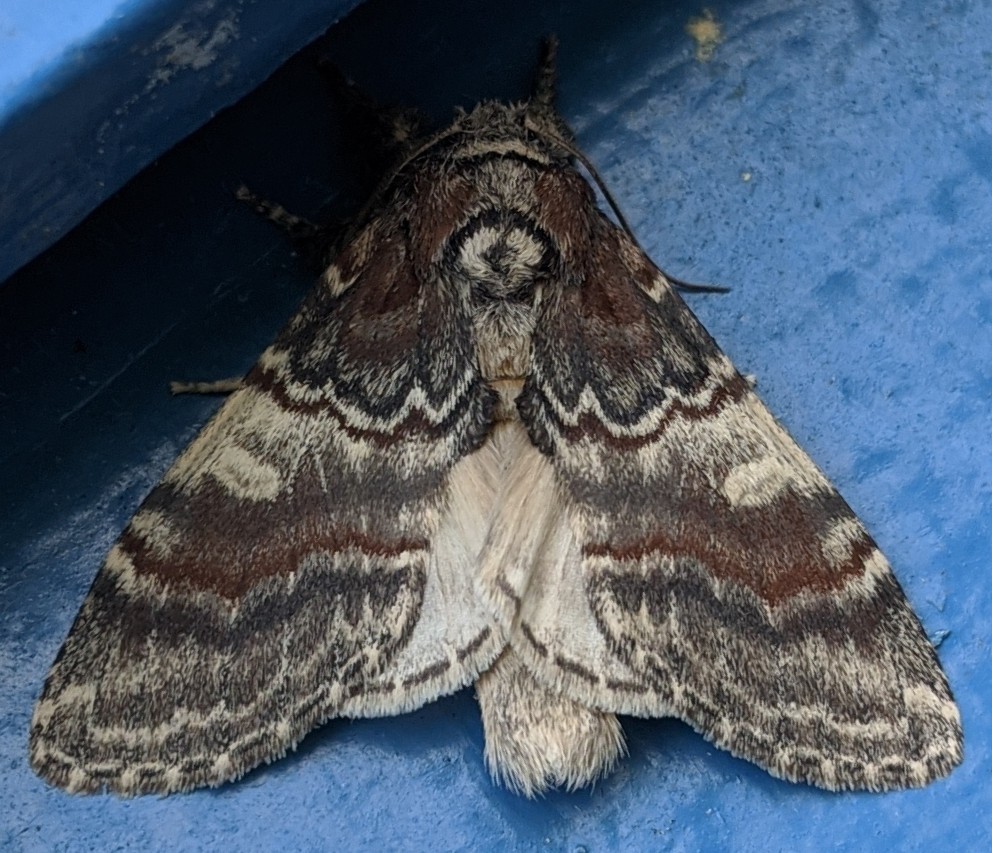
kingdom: Animalia
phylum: Arthropoda
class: Insecta
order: Lepidoptera
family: Notodontidae
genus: Peridea
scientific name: Peridea ferruginea
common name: Chocolate prominent
